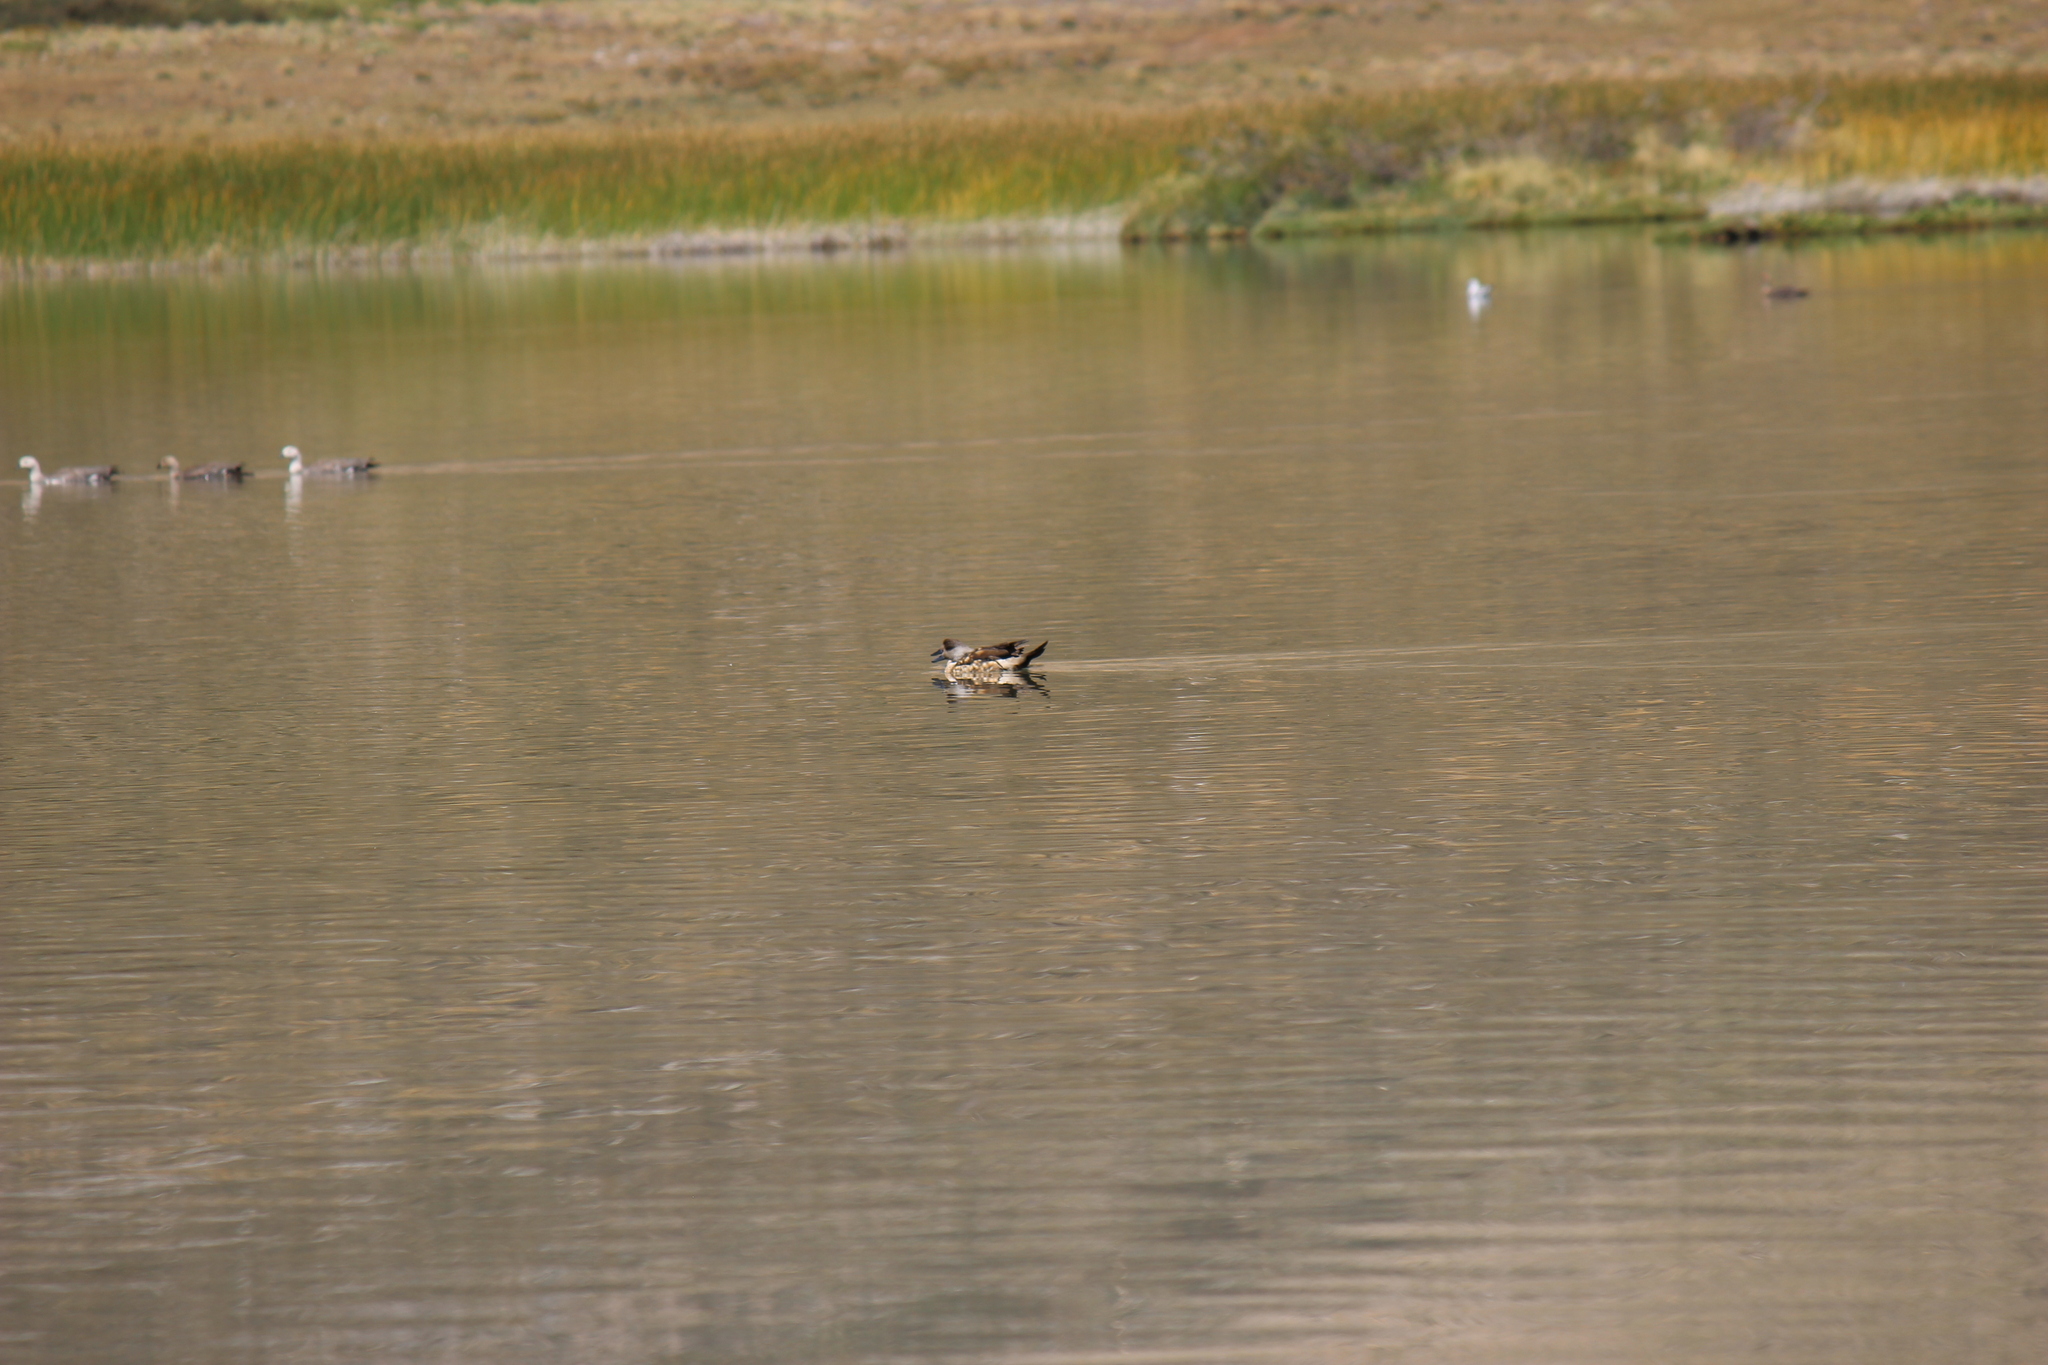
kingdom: Animalia
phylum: Chordata
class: Aves
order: Anseriformes
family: Anatidae
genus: Lophonetta
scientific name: Lophonetta specularioides
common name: Crested duck
